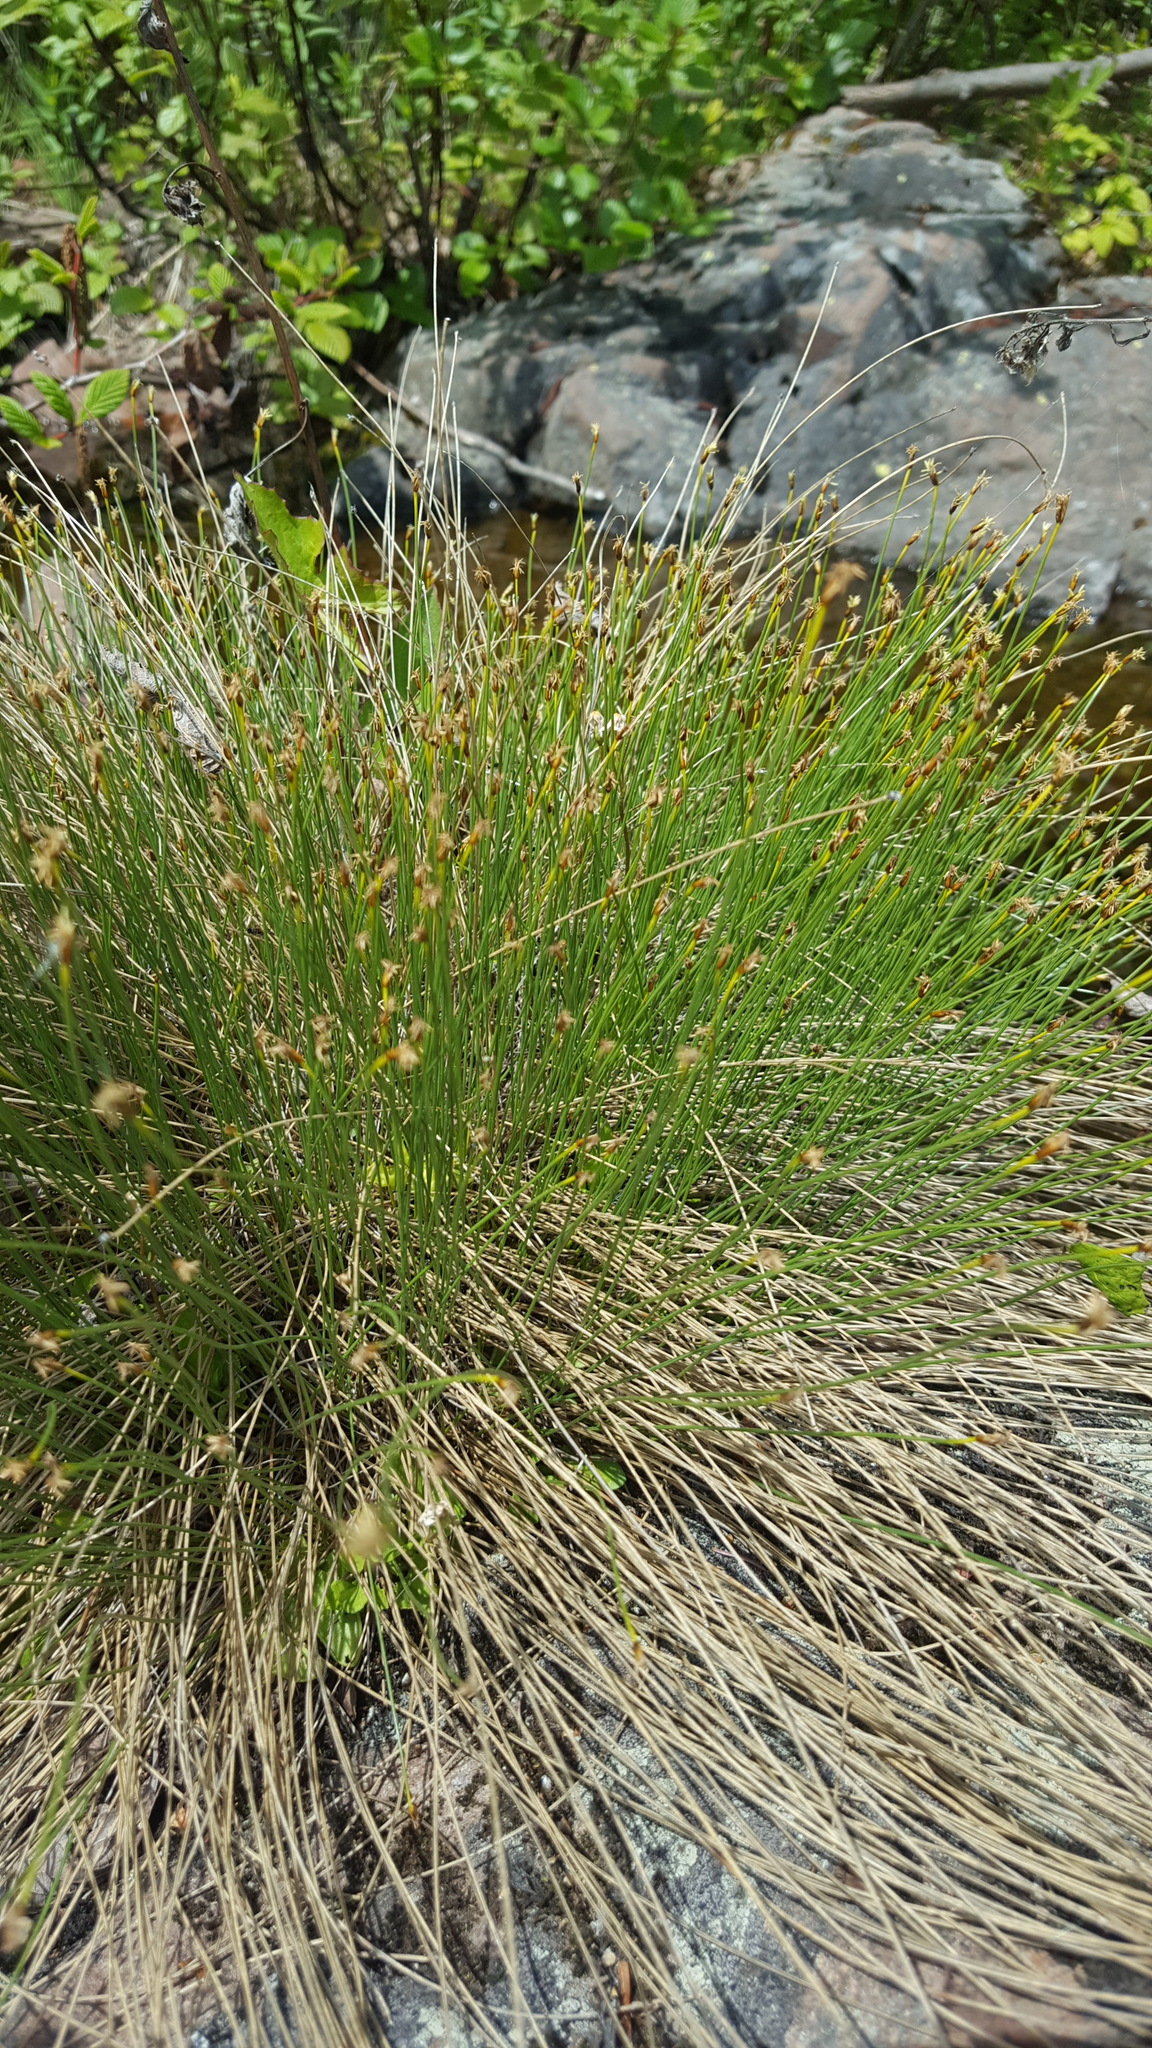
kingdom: Plantae
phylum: Tracheophyta
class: Liliopsida
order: Poales
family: Cyperaceae
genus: Trichophorum
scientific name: Trichophorum cespitosum
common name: Cespitose bulrush
